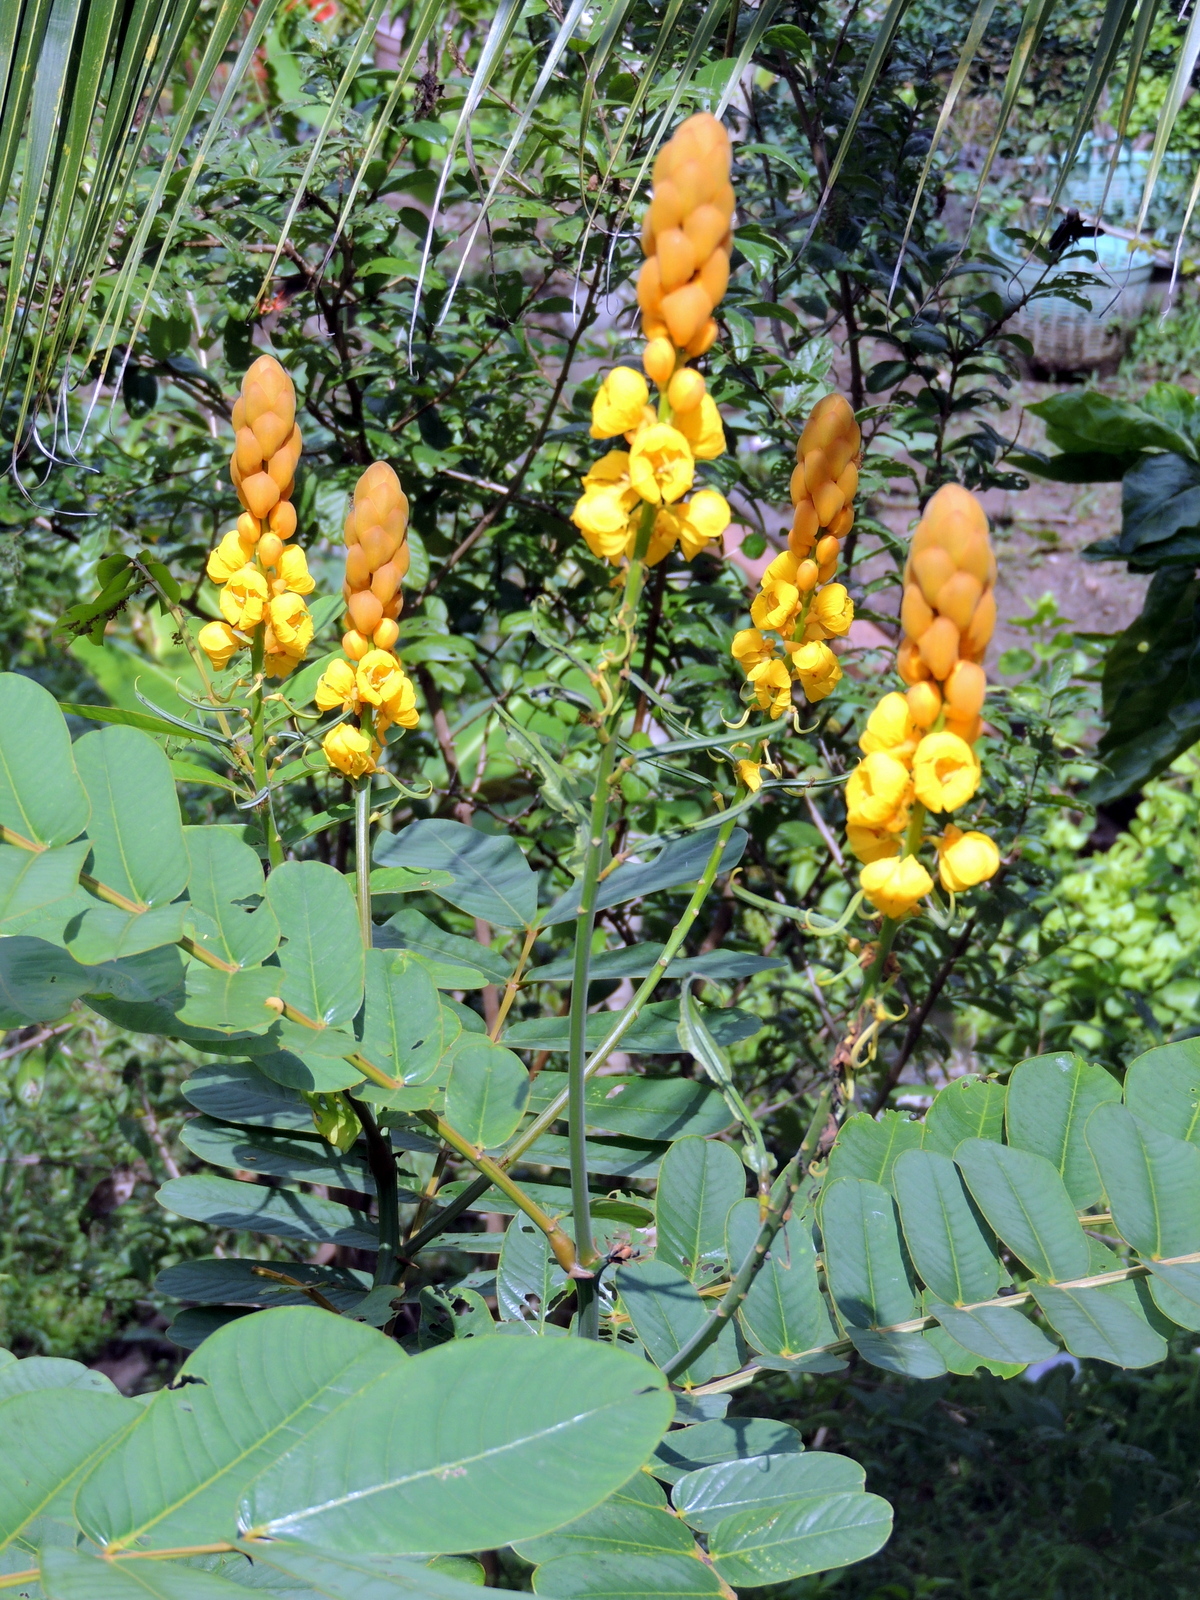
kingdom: Plantae
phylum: Tracheophyta
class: Magnoliopsida
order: Fabales
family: Fabaceae
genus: Senna
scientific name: Senna alata
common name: Emperor's candlesticks
